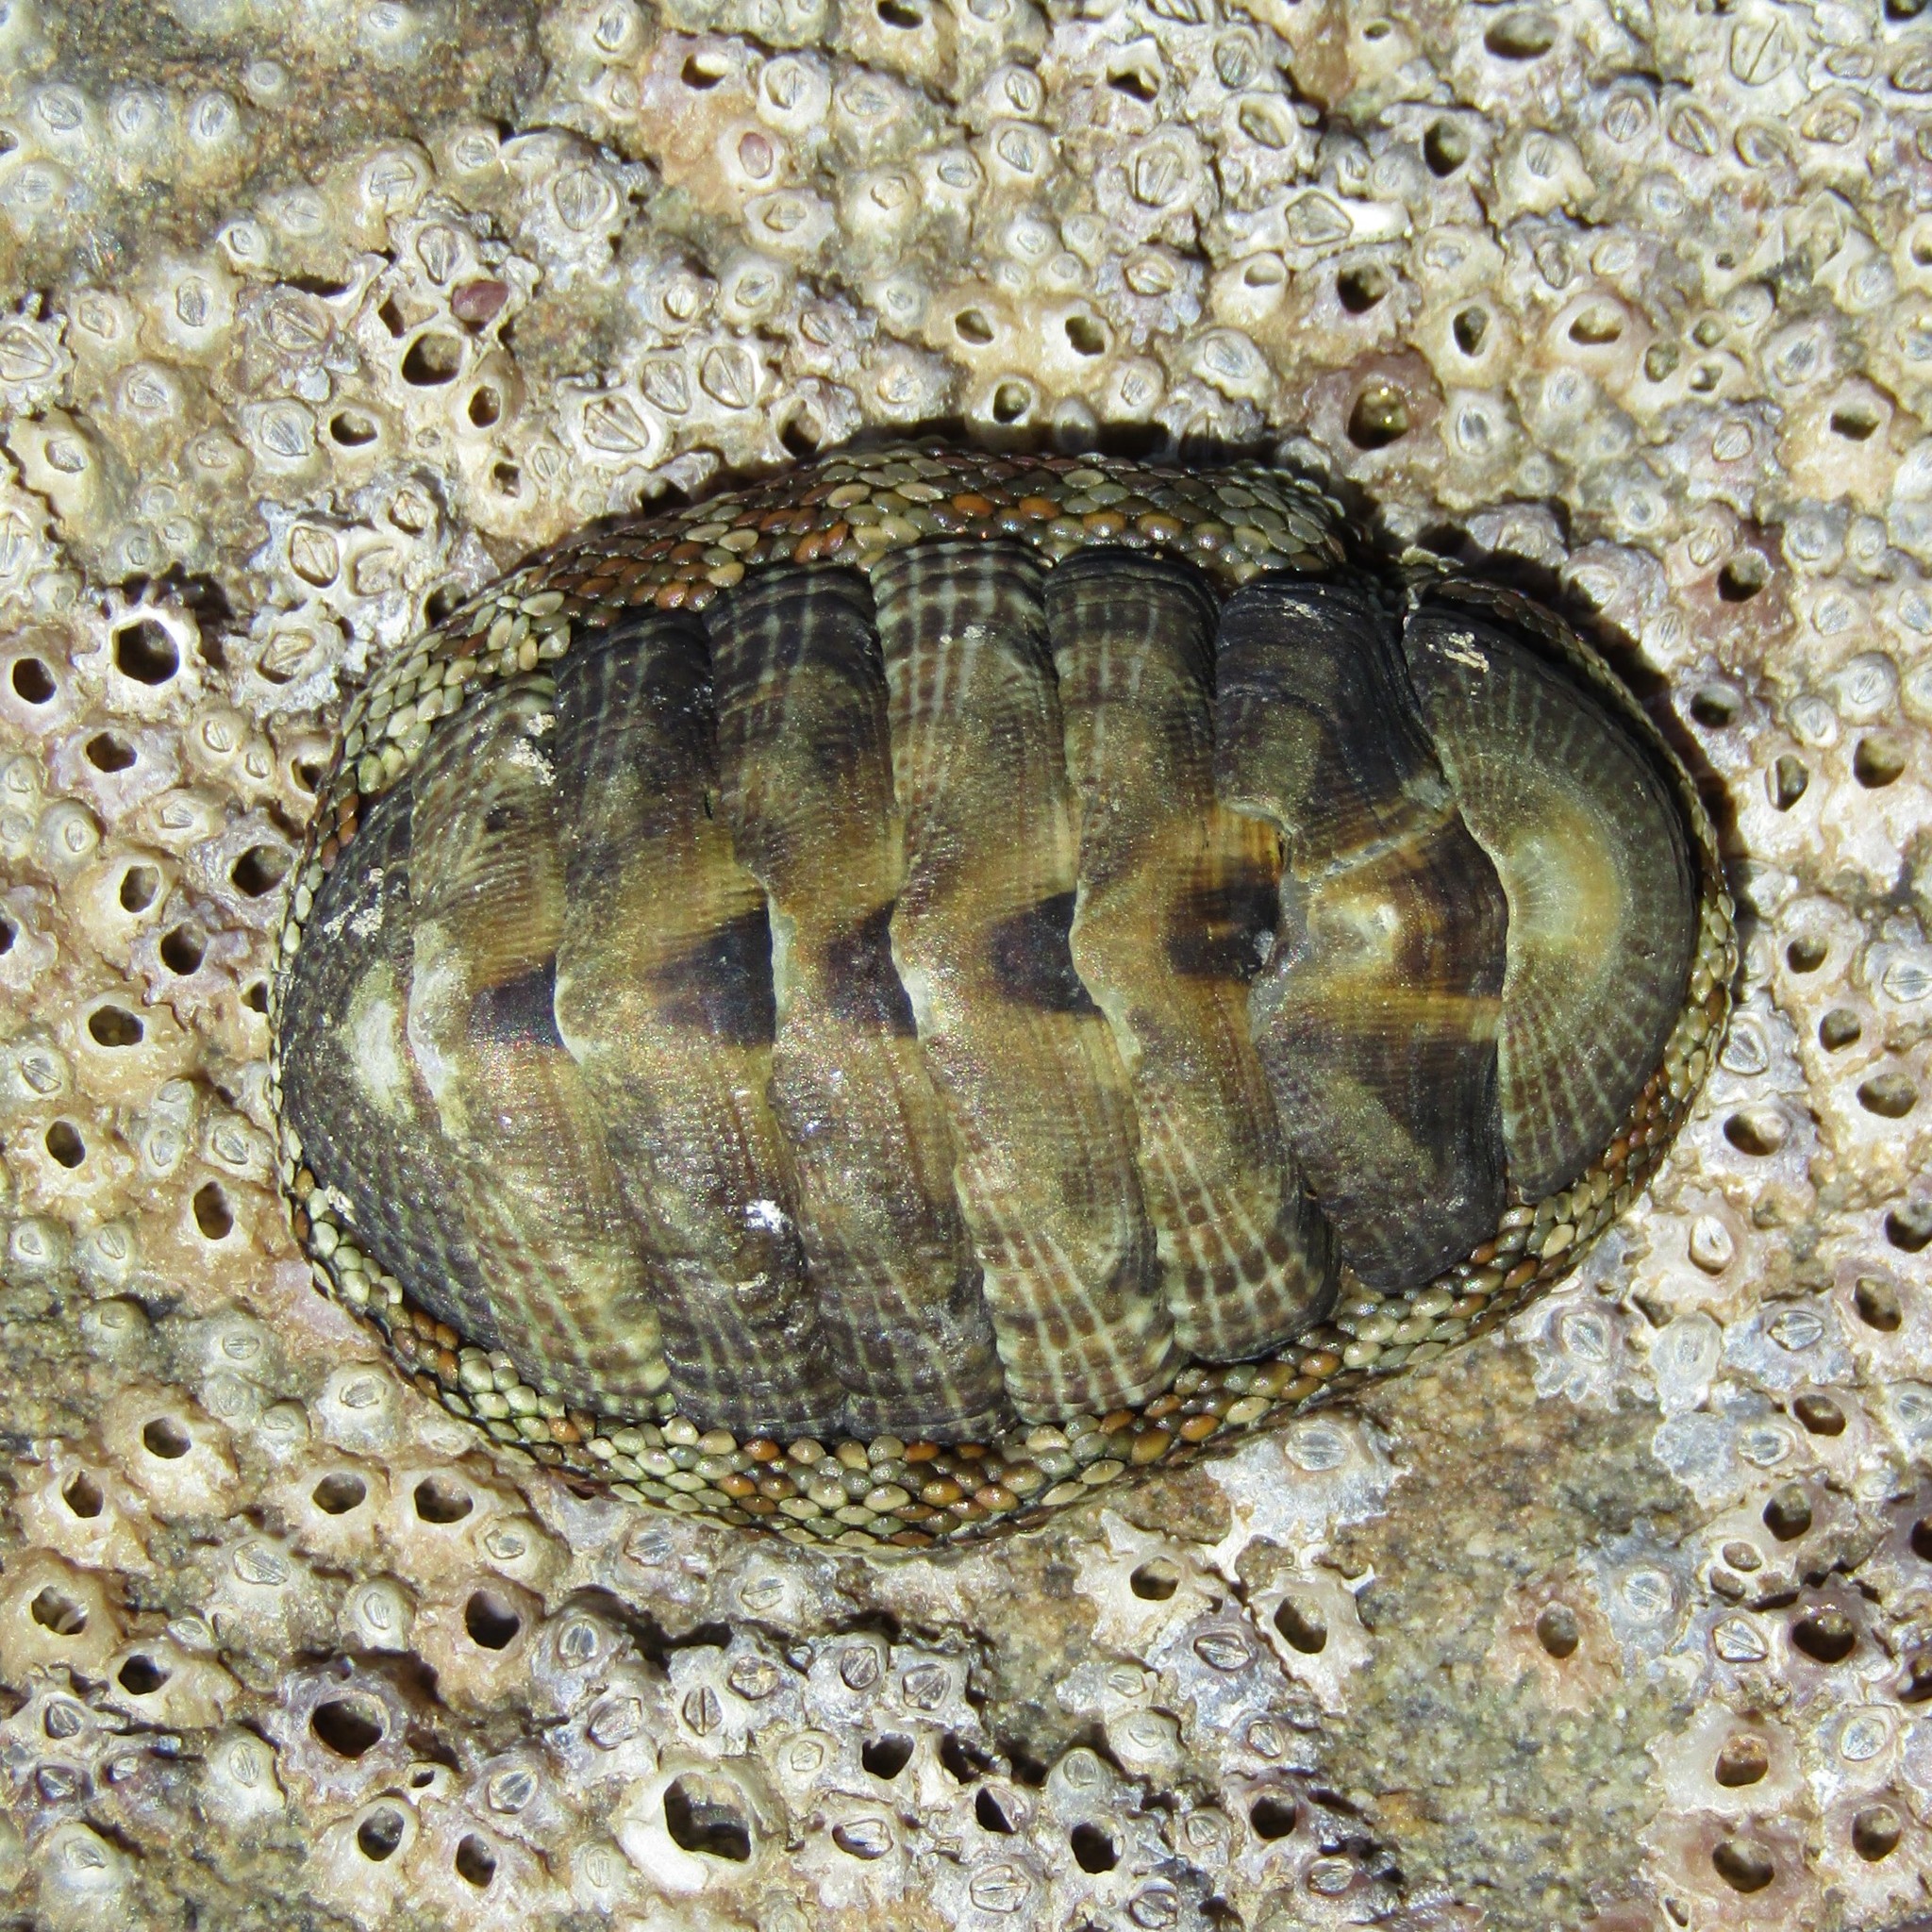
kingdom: Animalia
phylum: Mollusca
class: Polyplacophora
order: Chitonida
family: Chitonidae
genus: Sypharochiton
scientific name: Sypharochiton pelliserpentis
